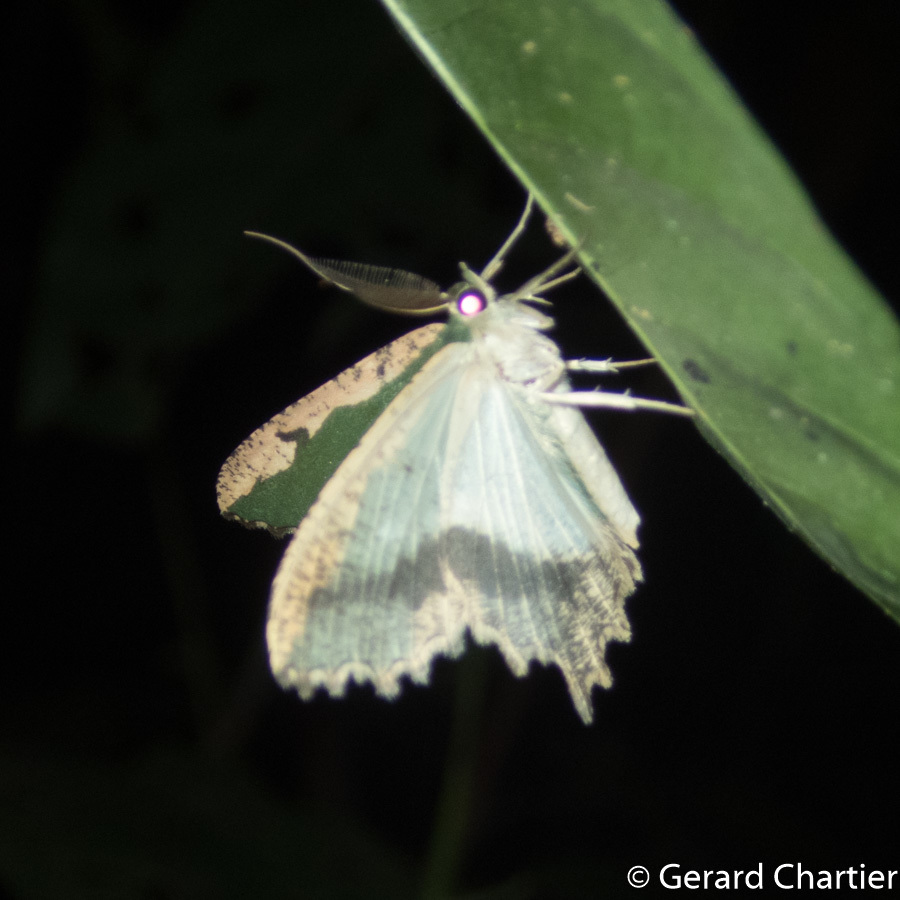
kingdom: Animalia
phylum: Arthropoda
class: Insecta
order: Lepidoptera
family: Geometridae
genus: Maxates
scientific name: Maxates coelataria
